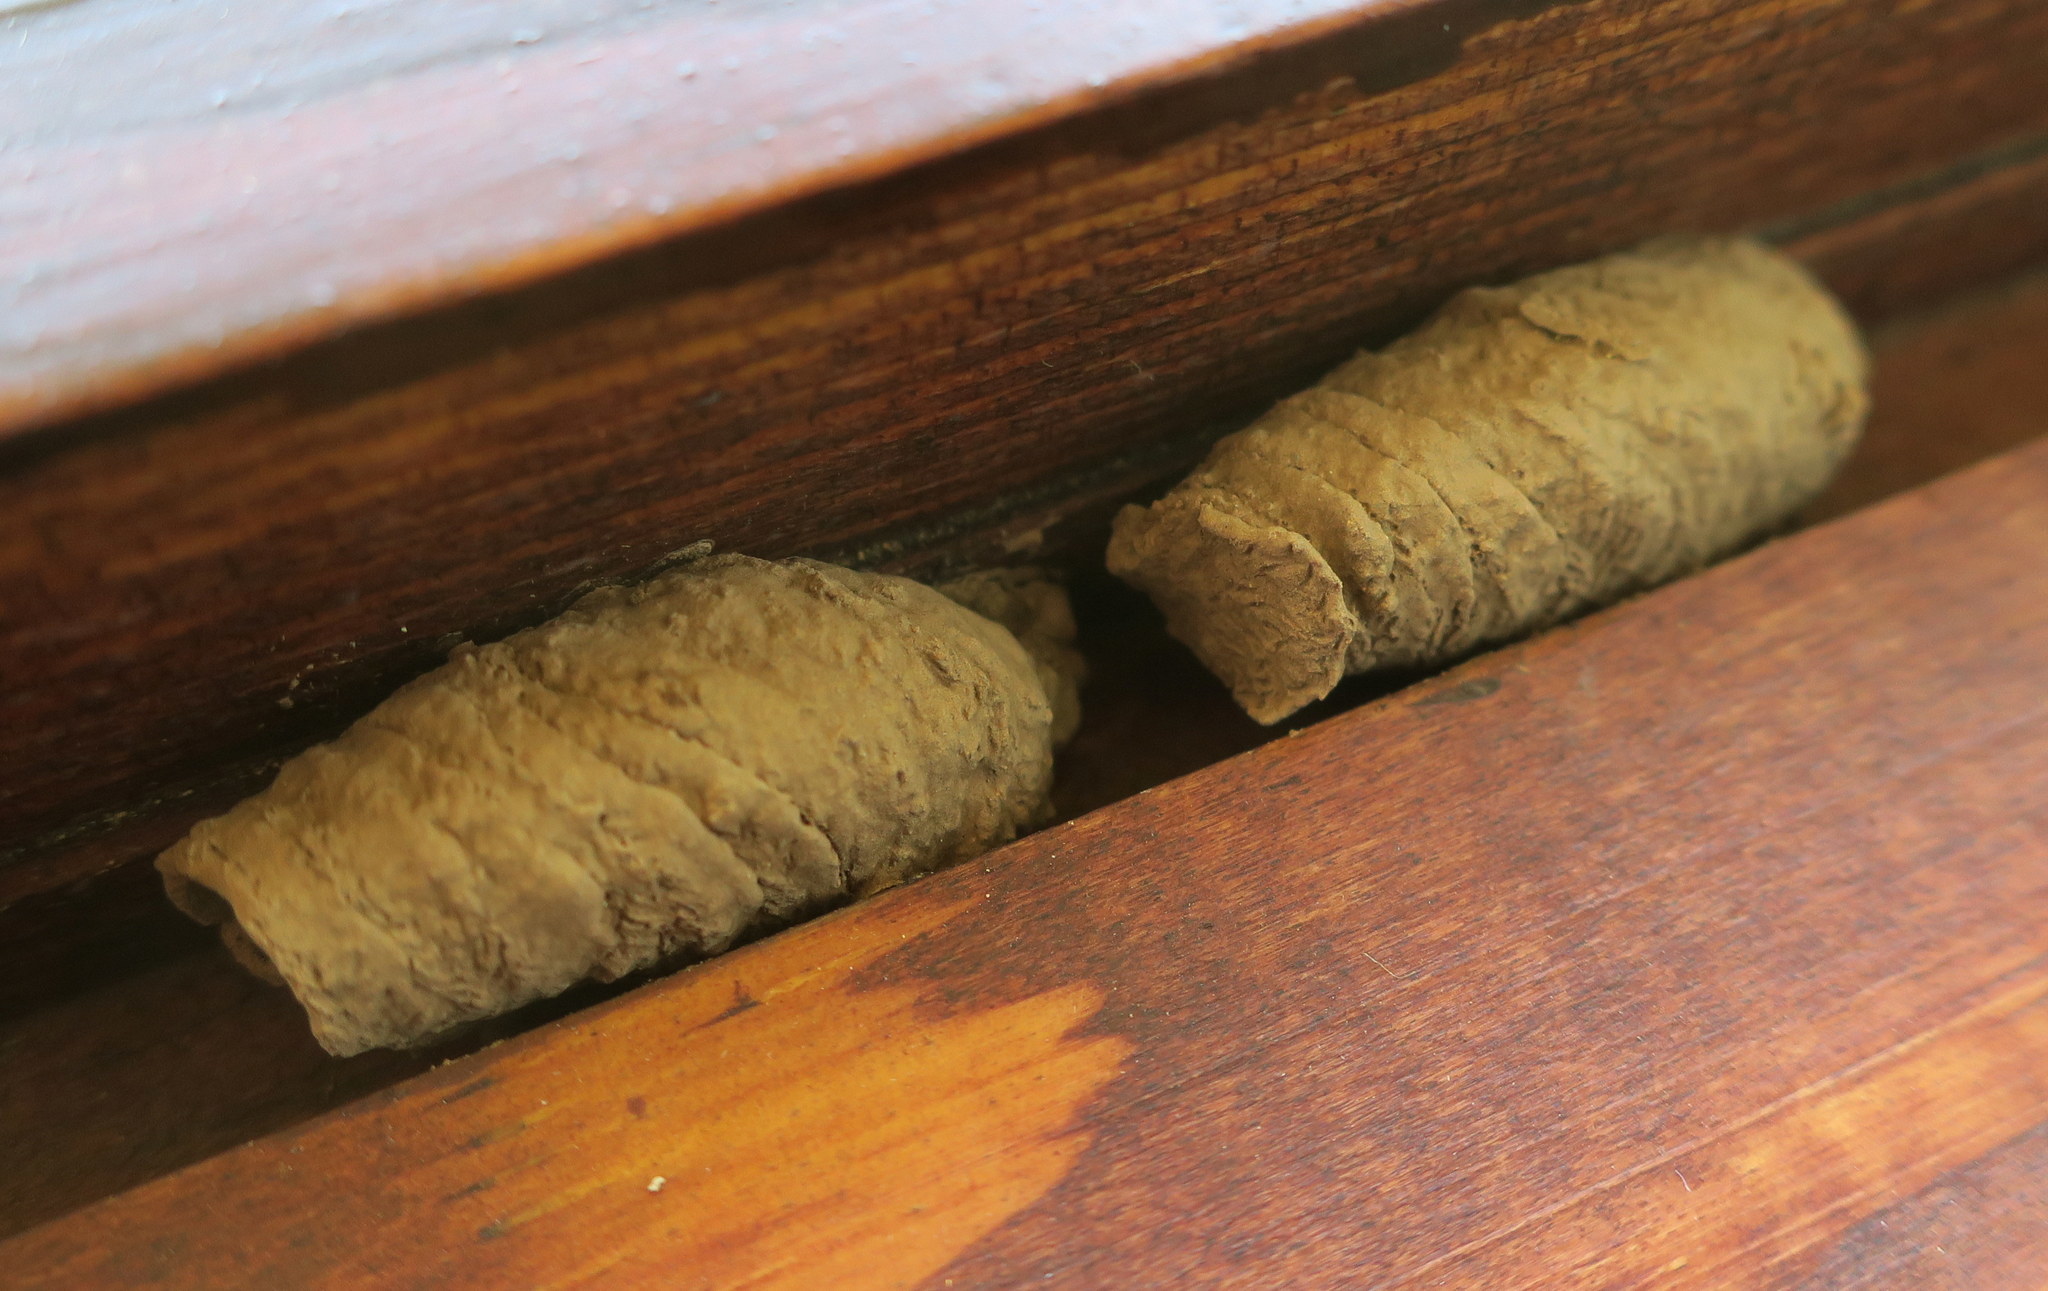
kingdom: Animalia
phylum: Arthropoda
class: Insecta
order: Hymenoptera
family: Sphecidae
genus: Sceliphron
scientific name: Sceliphron curvatum
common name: Pèlopèe
